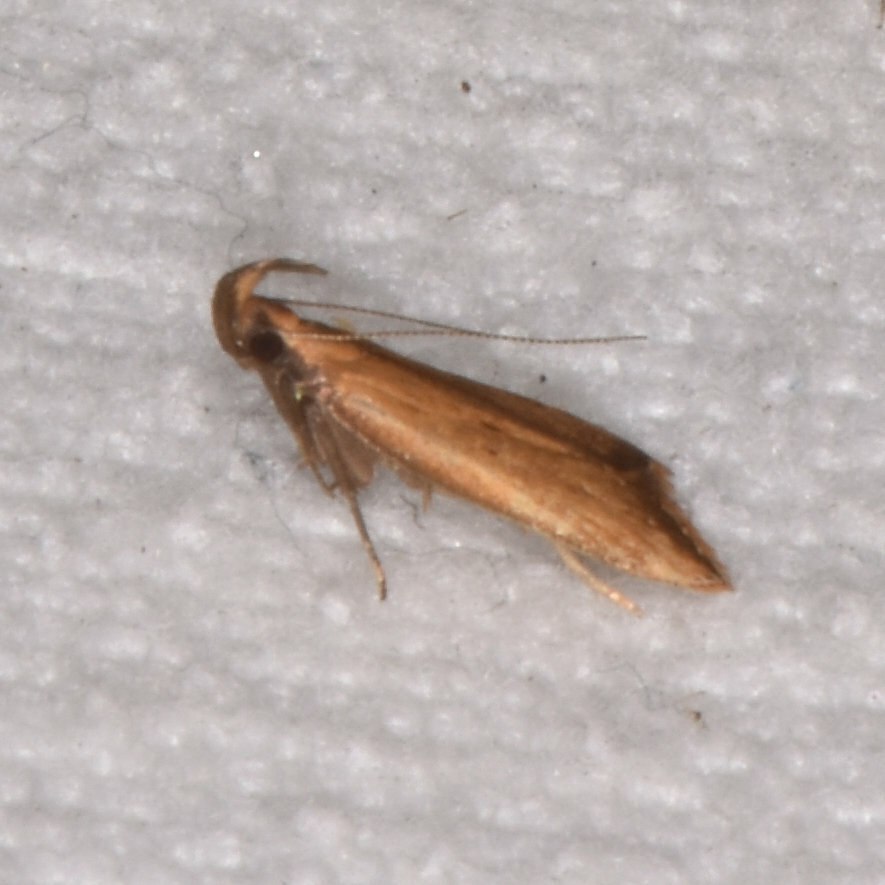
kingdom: Animalia
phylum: Arthropoda
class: Insecta
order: Lepidoptera
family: Gelechiidae
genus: Dichomeris
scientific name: Dichomeris heriguronis
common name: Black-edged dichomeris moth
